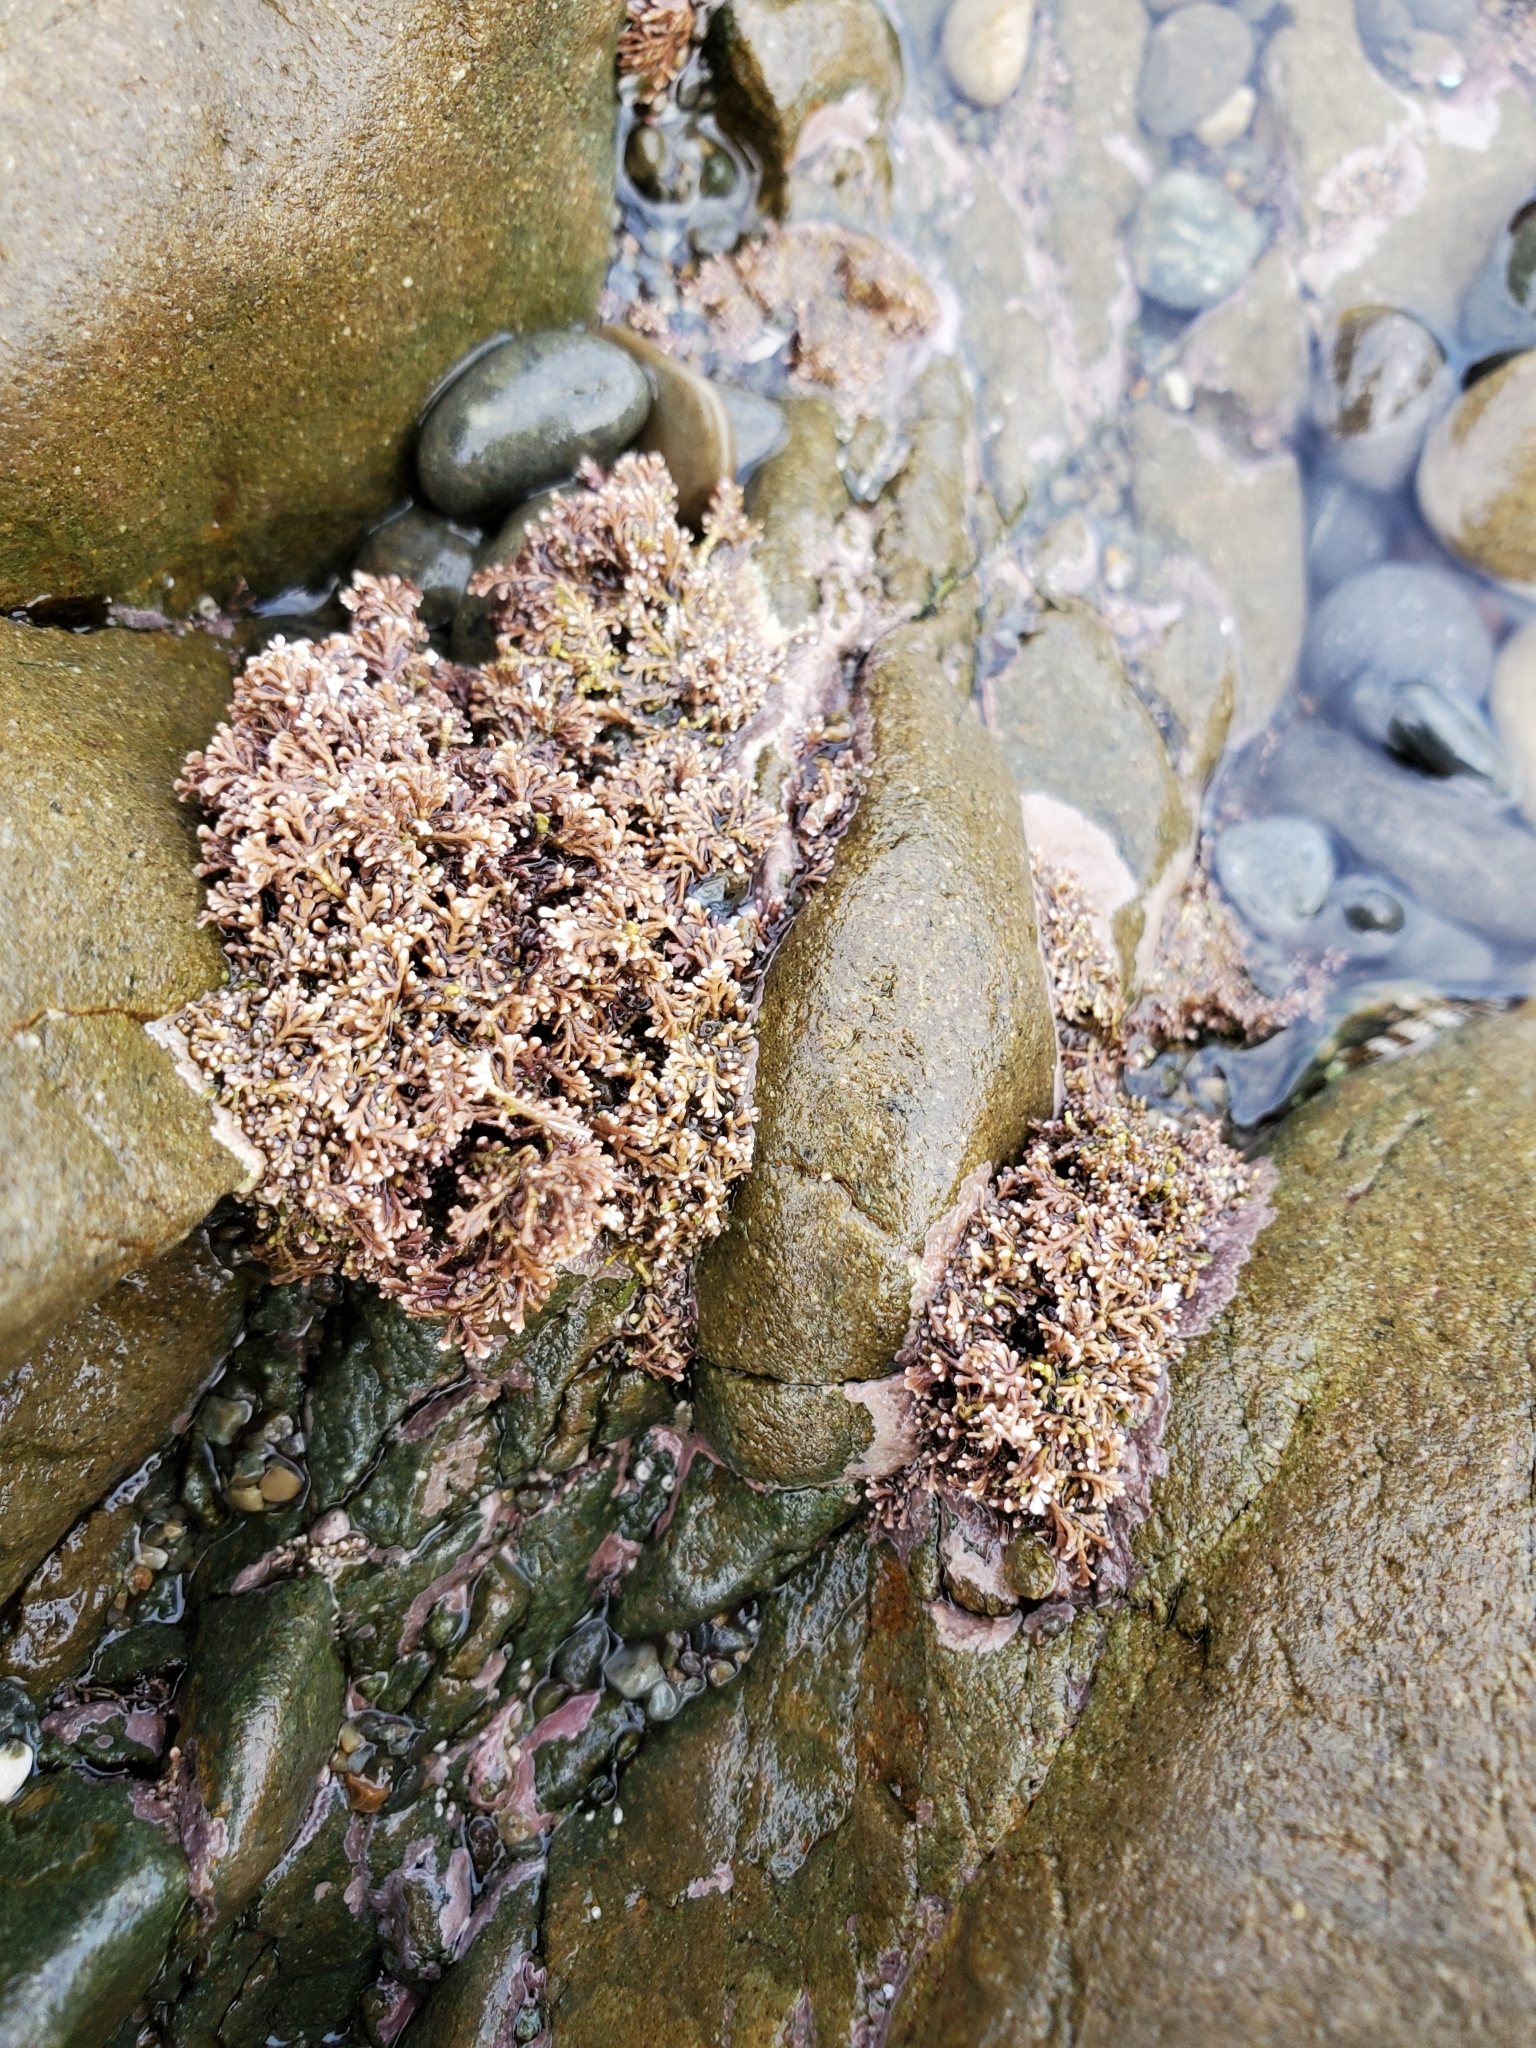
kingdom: Plantae
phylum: Rhodophyta
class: Florideophyceae
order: Corallinales
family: Corallinaceae
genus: Corallina
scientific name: Corallina officinalis
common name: Coral weed
